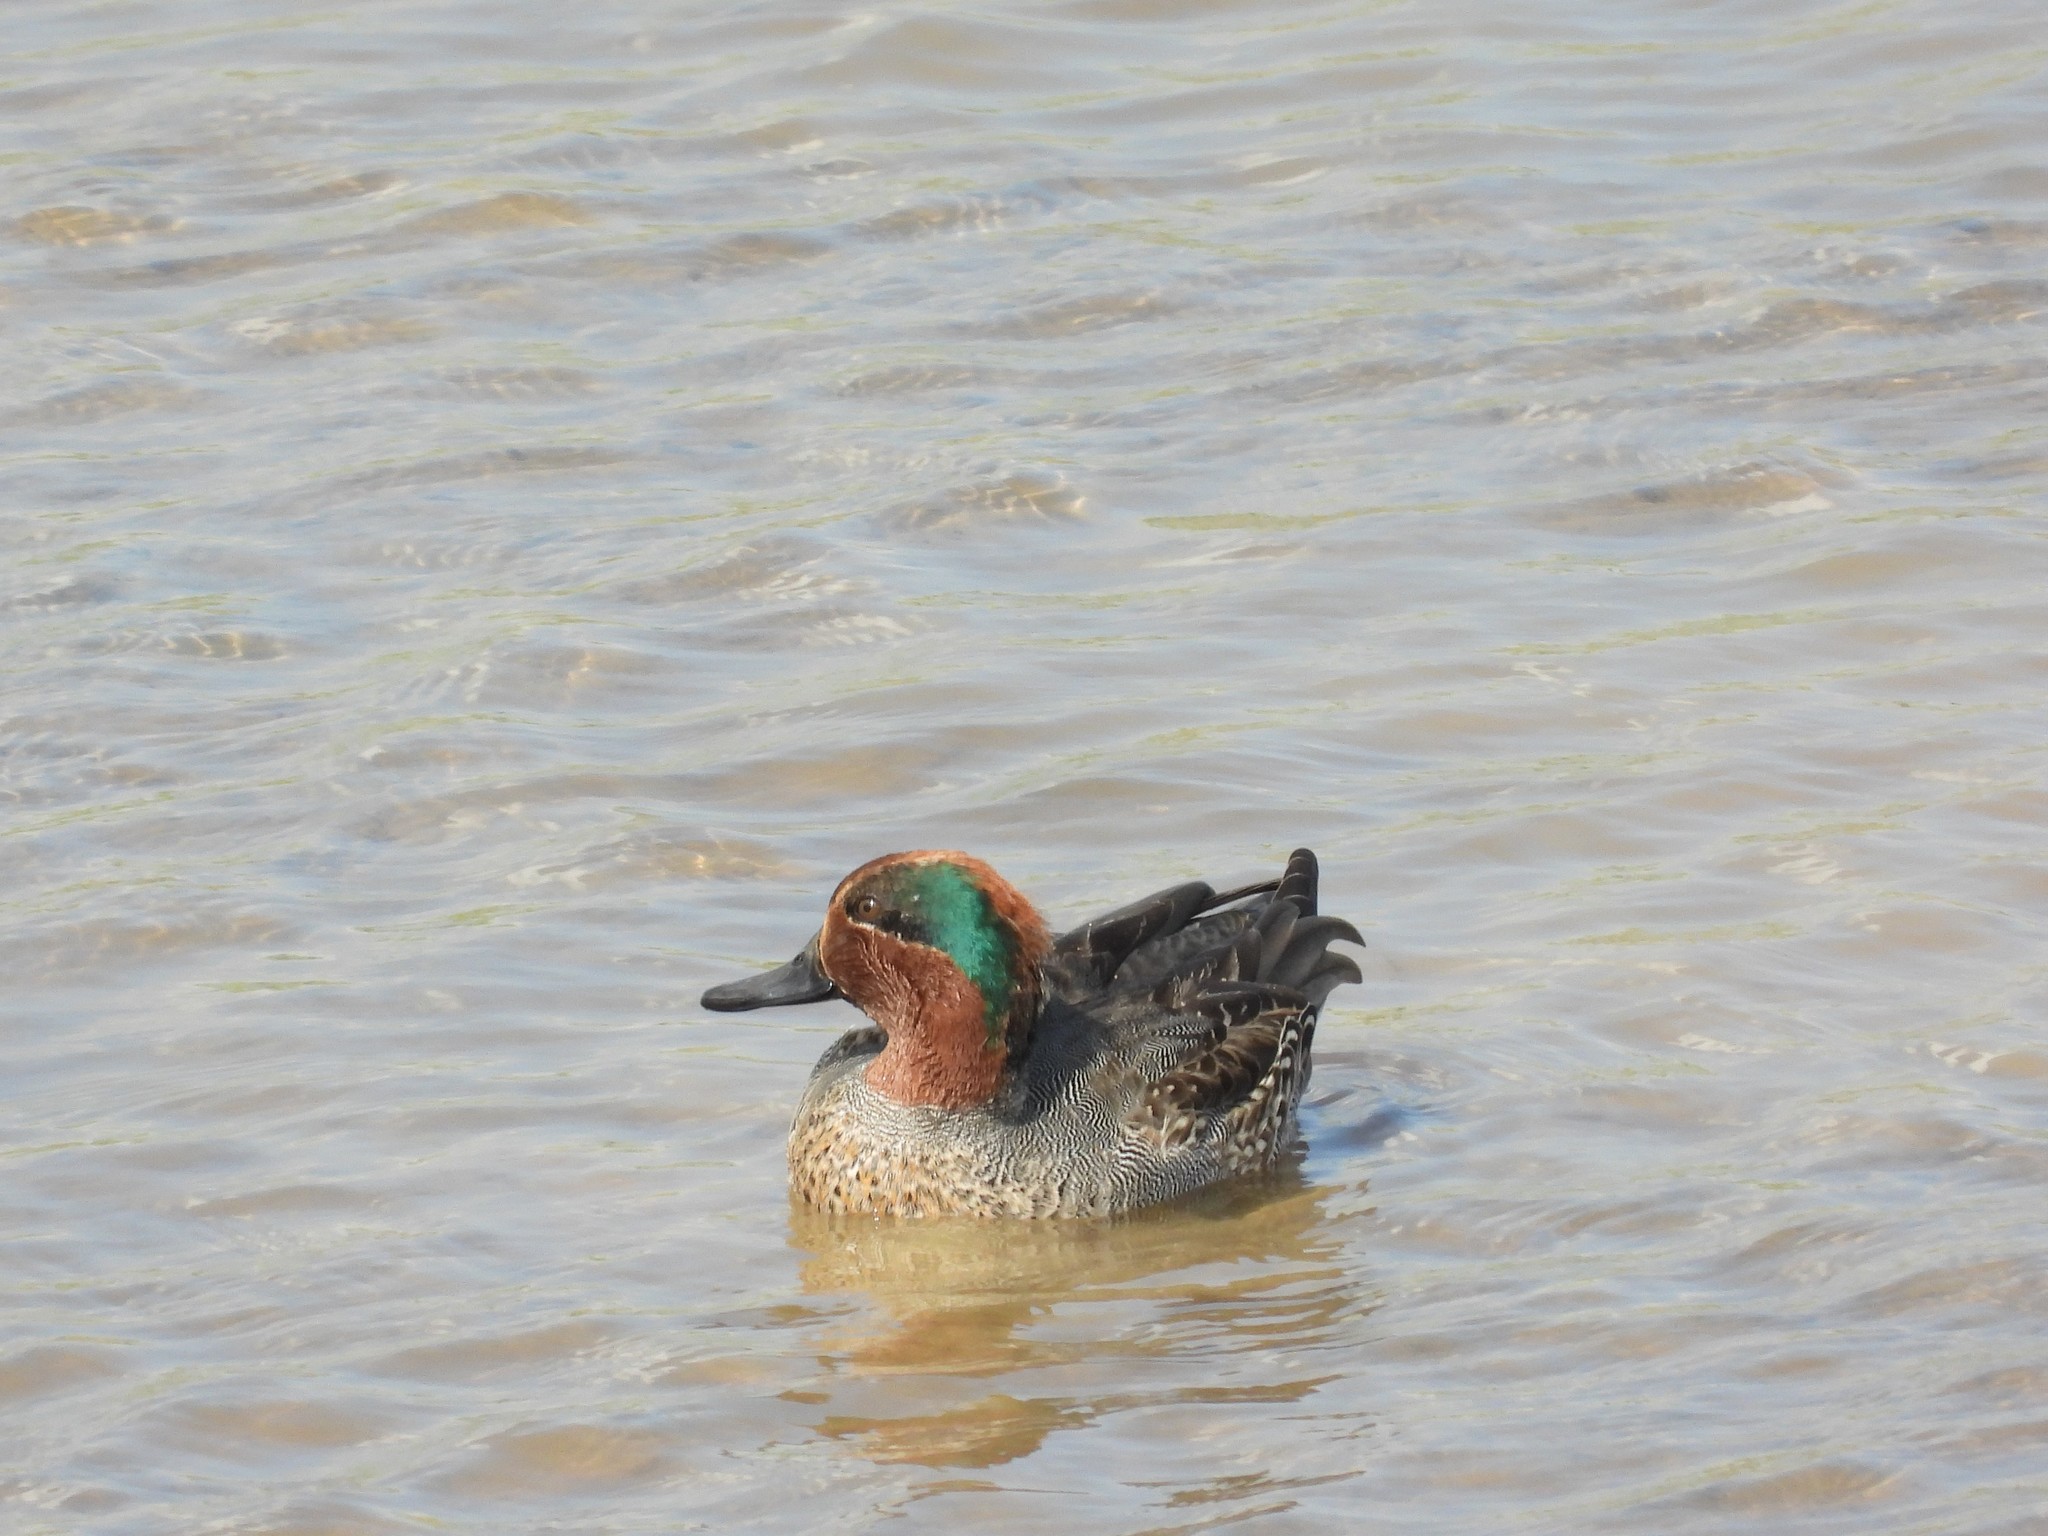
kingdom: Animalia
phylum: Chordata
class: Aves
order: Anseriformes
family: Anatidae
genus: Anas
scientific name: Anas crecca
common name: Eurasian teal
